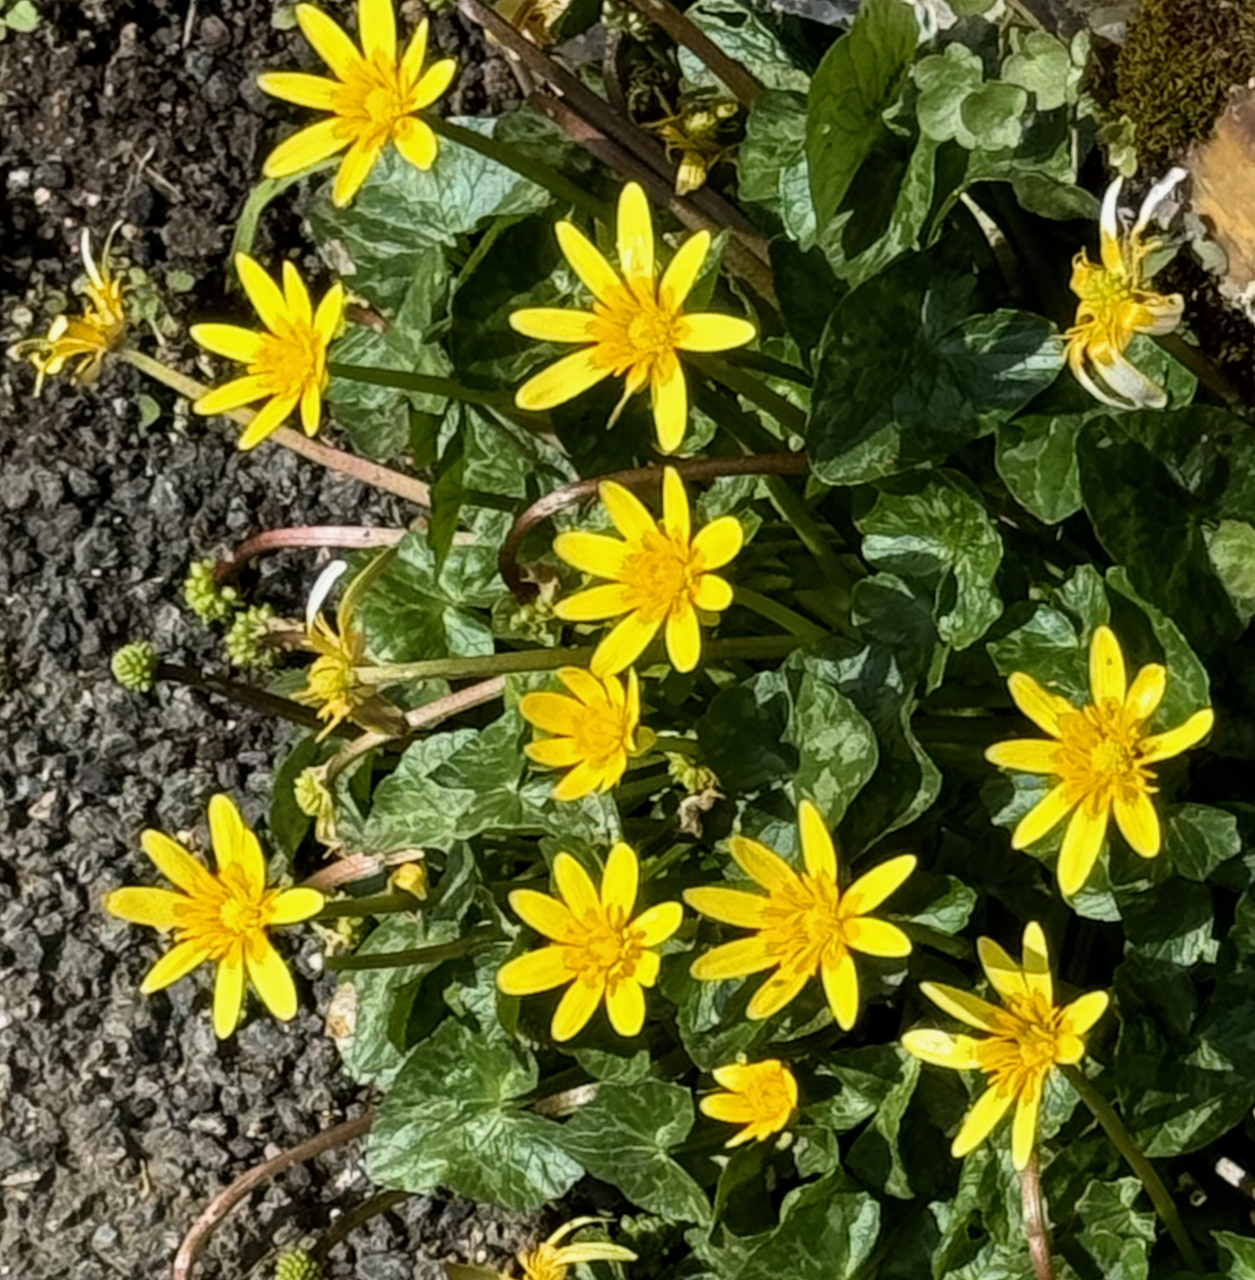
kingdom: Plantae
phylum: Tracheophyta
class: Magnoliopsida
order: Ranunculales
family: Ranunculaceae
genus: Ficaria
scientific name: Ficaria verna
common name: Lesser celandine
